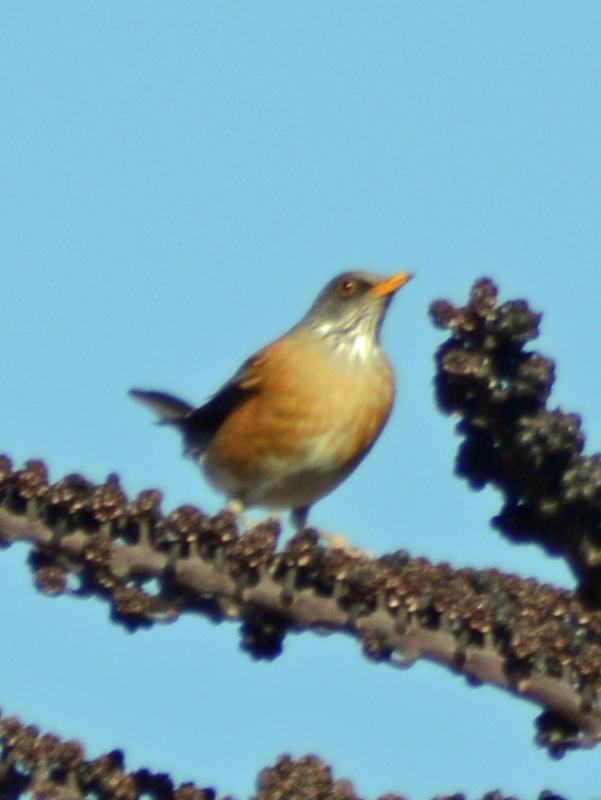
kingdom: Animalia
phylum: Chordata
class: Aves
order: Passeriformes
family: Turdidae
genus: Turdus
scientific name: Turdus rufopalliatus
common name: Rufous-backed robin
